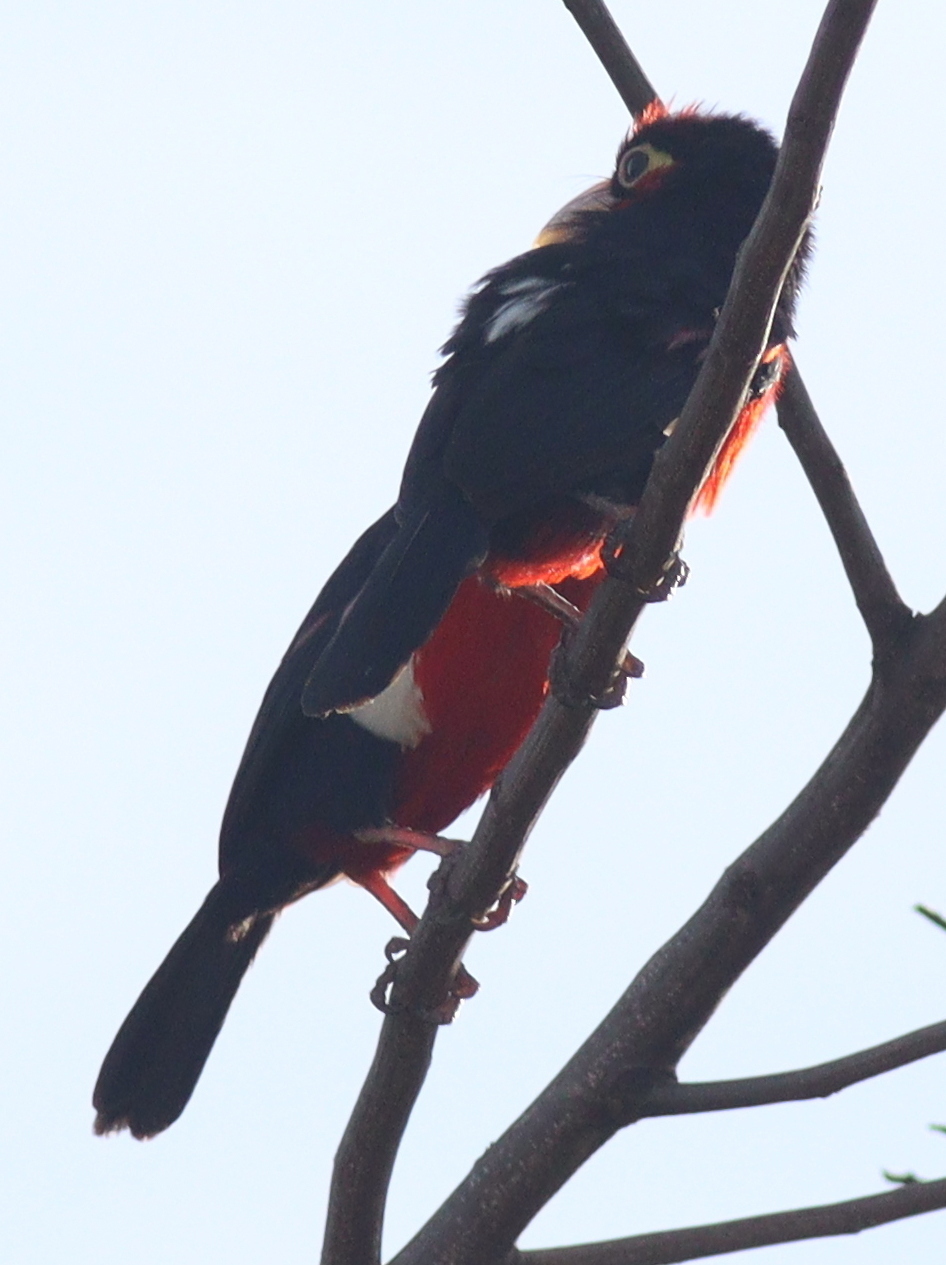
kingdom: Animalia
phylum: Chordata
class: Aves
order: Piciformes
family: Lybiidae
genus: Lybius
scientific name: Lybius bidentatus
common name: Double-toothed barbet
